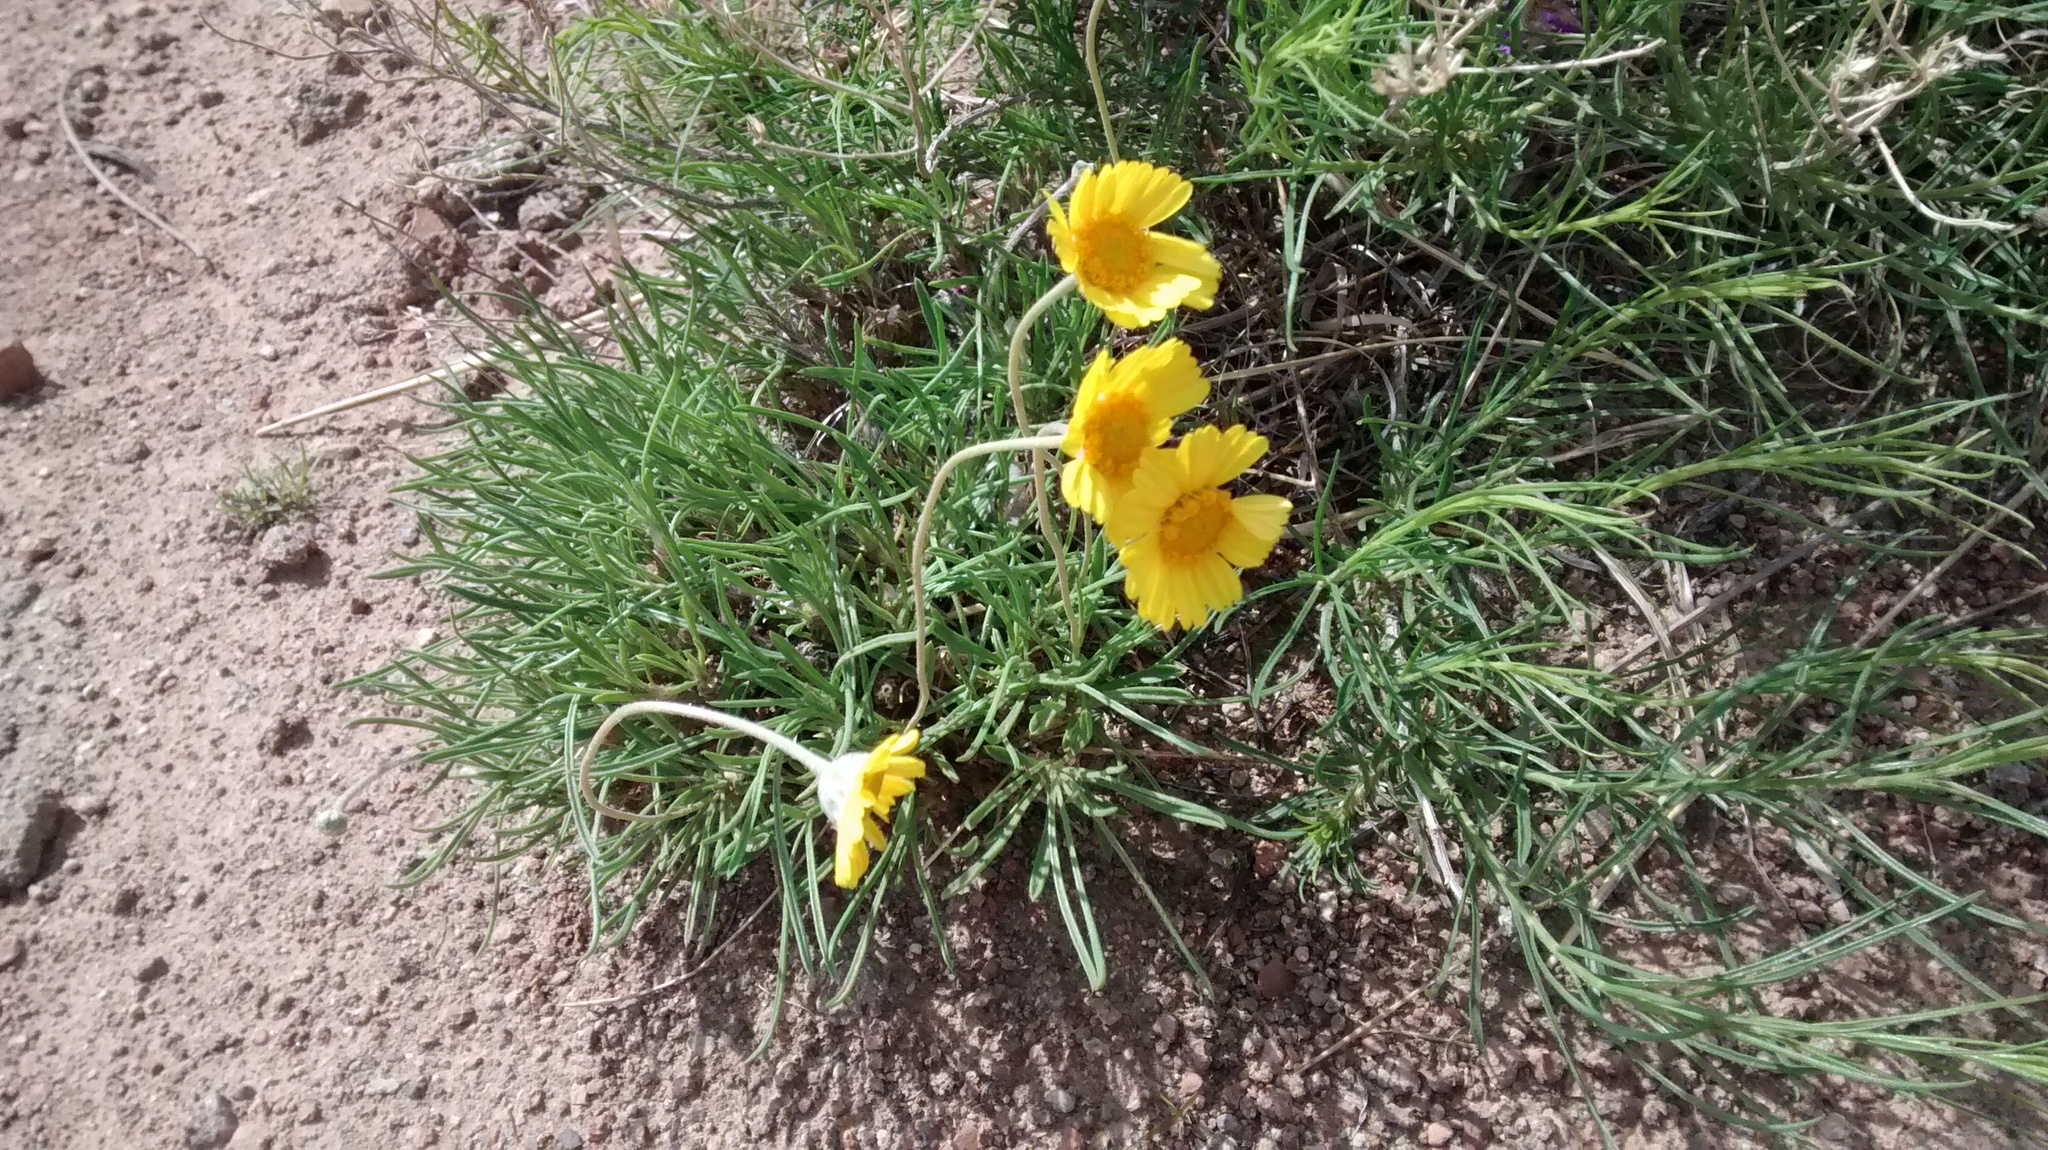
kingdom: Plantae
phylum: Tracheophyta
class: Magnoliopsida
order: Asterales
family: Asteraceae
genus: Tetraneuris
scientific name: Tetraneuris scaposa
